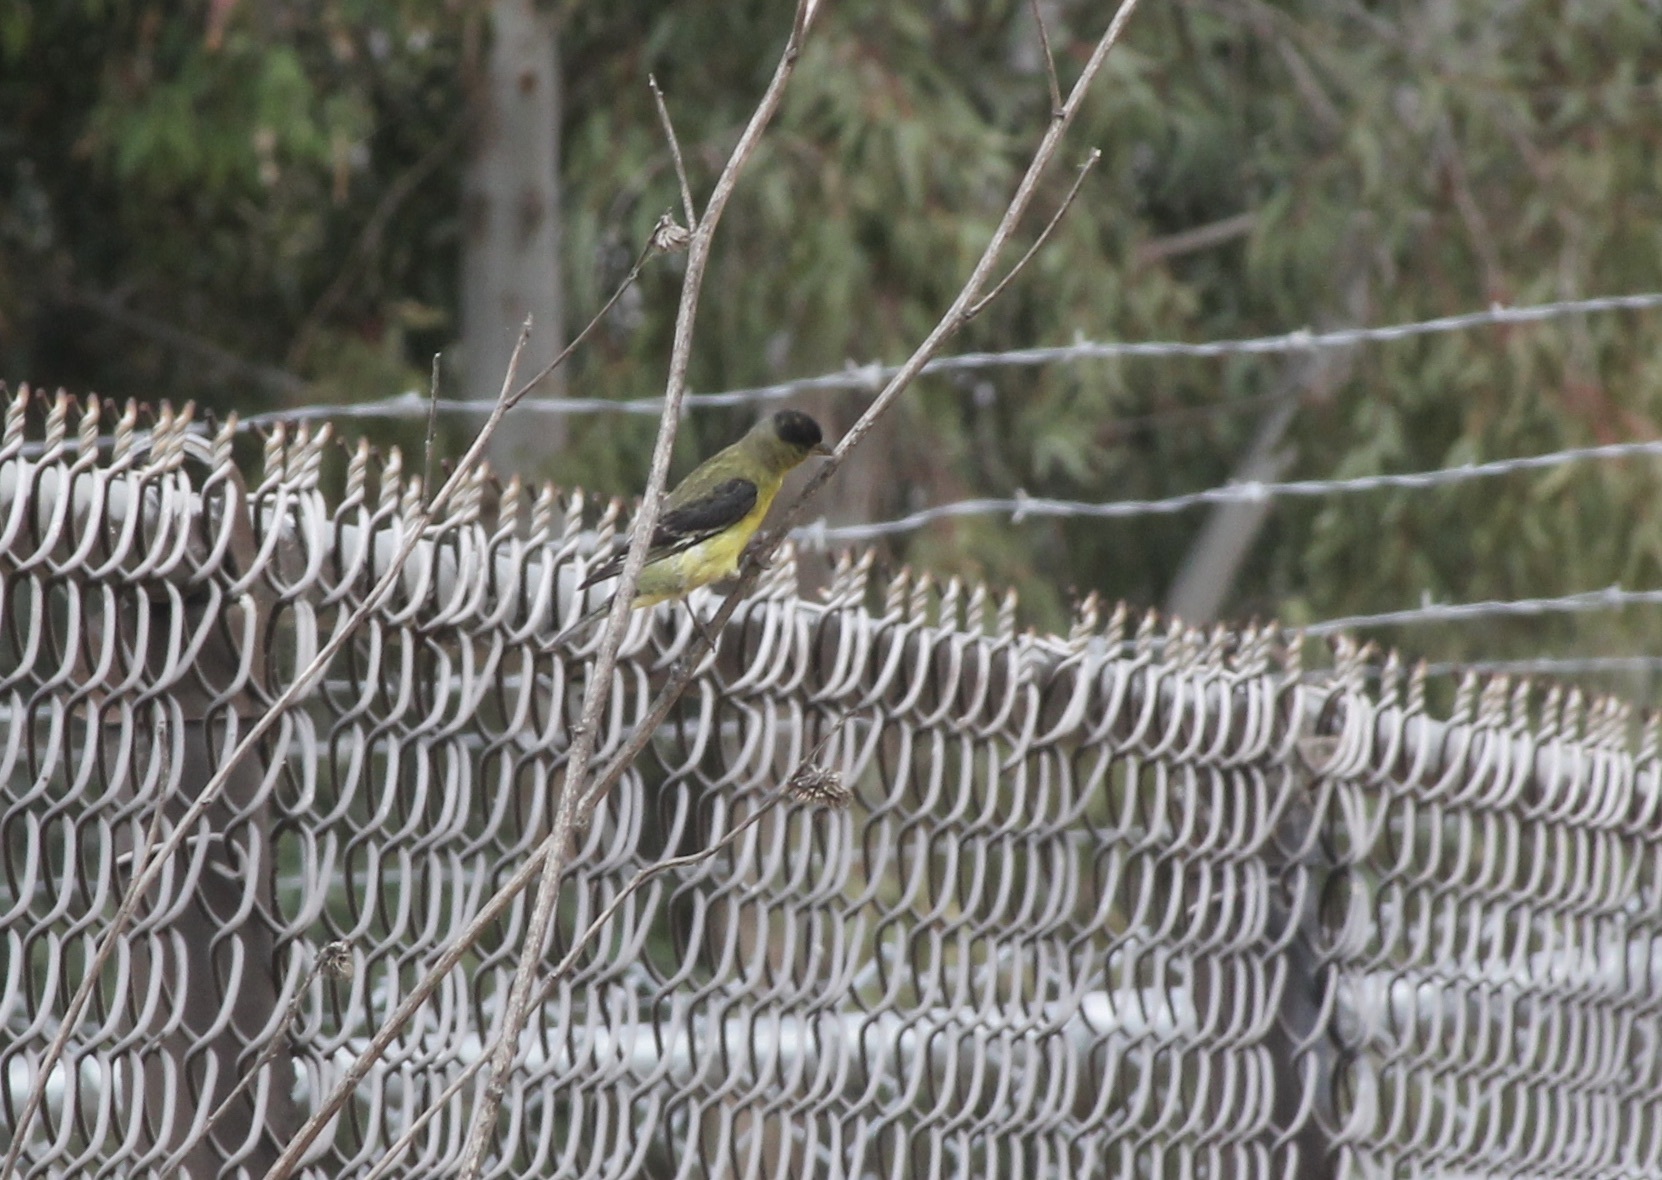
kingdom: Animalia
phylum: Chordata
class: Aves
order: Passeriformes
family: Fringillidae
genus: Spinus
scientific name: Spinus psaltria
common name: Lesser goldfinch
